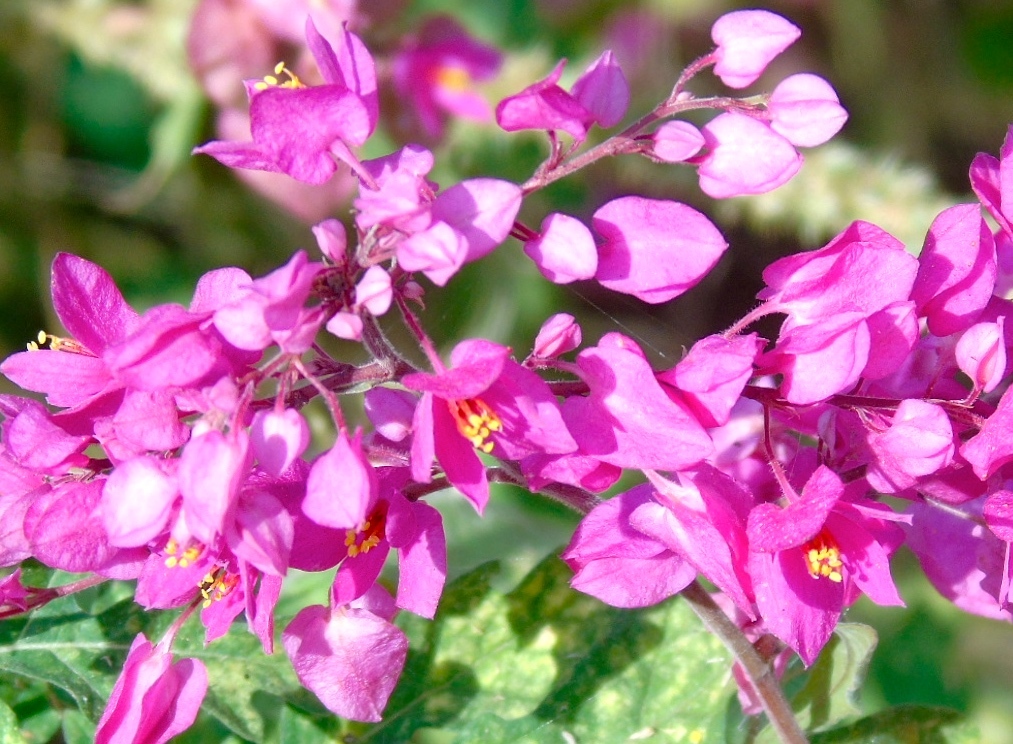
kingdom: Plantae
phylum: Tracheophyta
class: Magnoliopsida
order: Caryophyllales
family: Polygonaceae
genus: Antigonon
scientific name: Antigonon leptopus
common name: Coral vine
